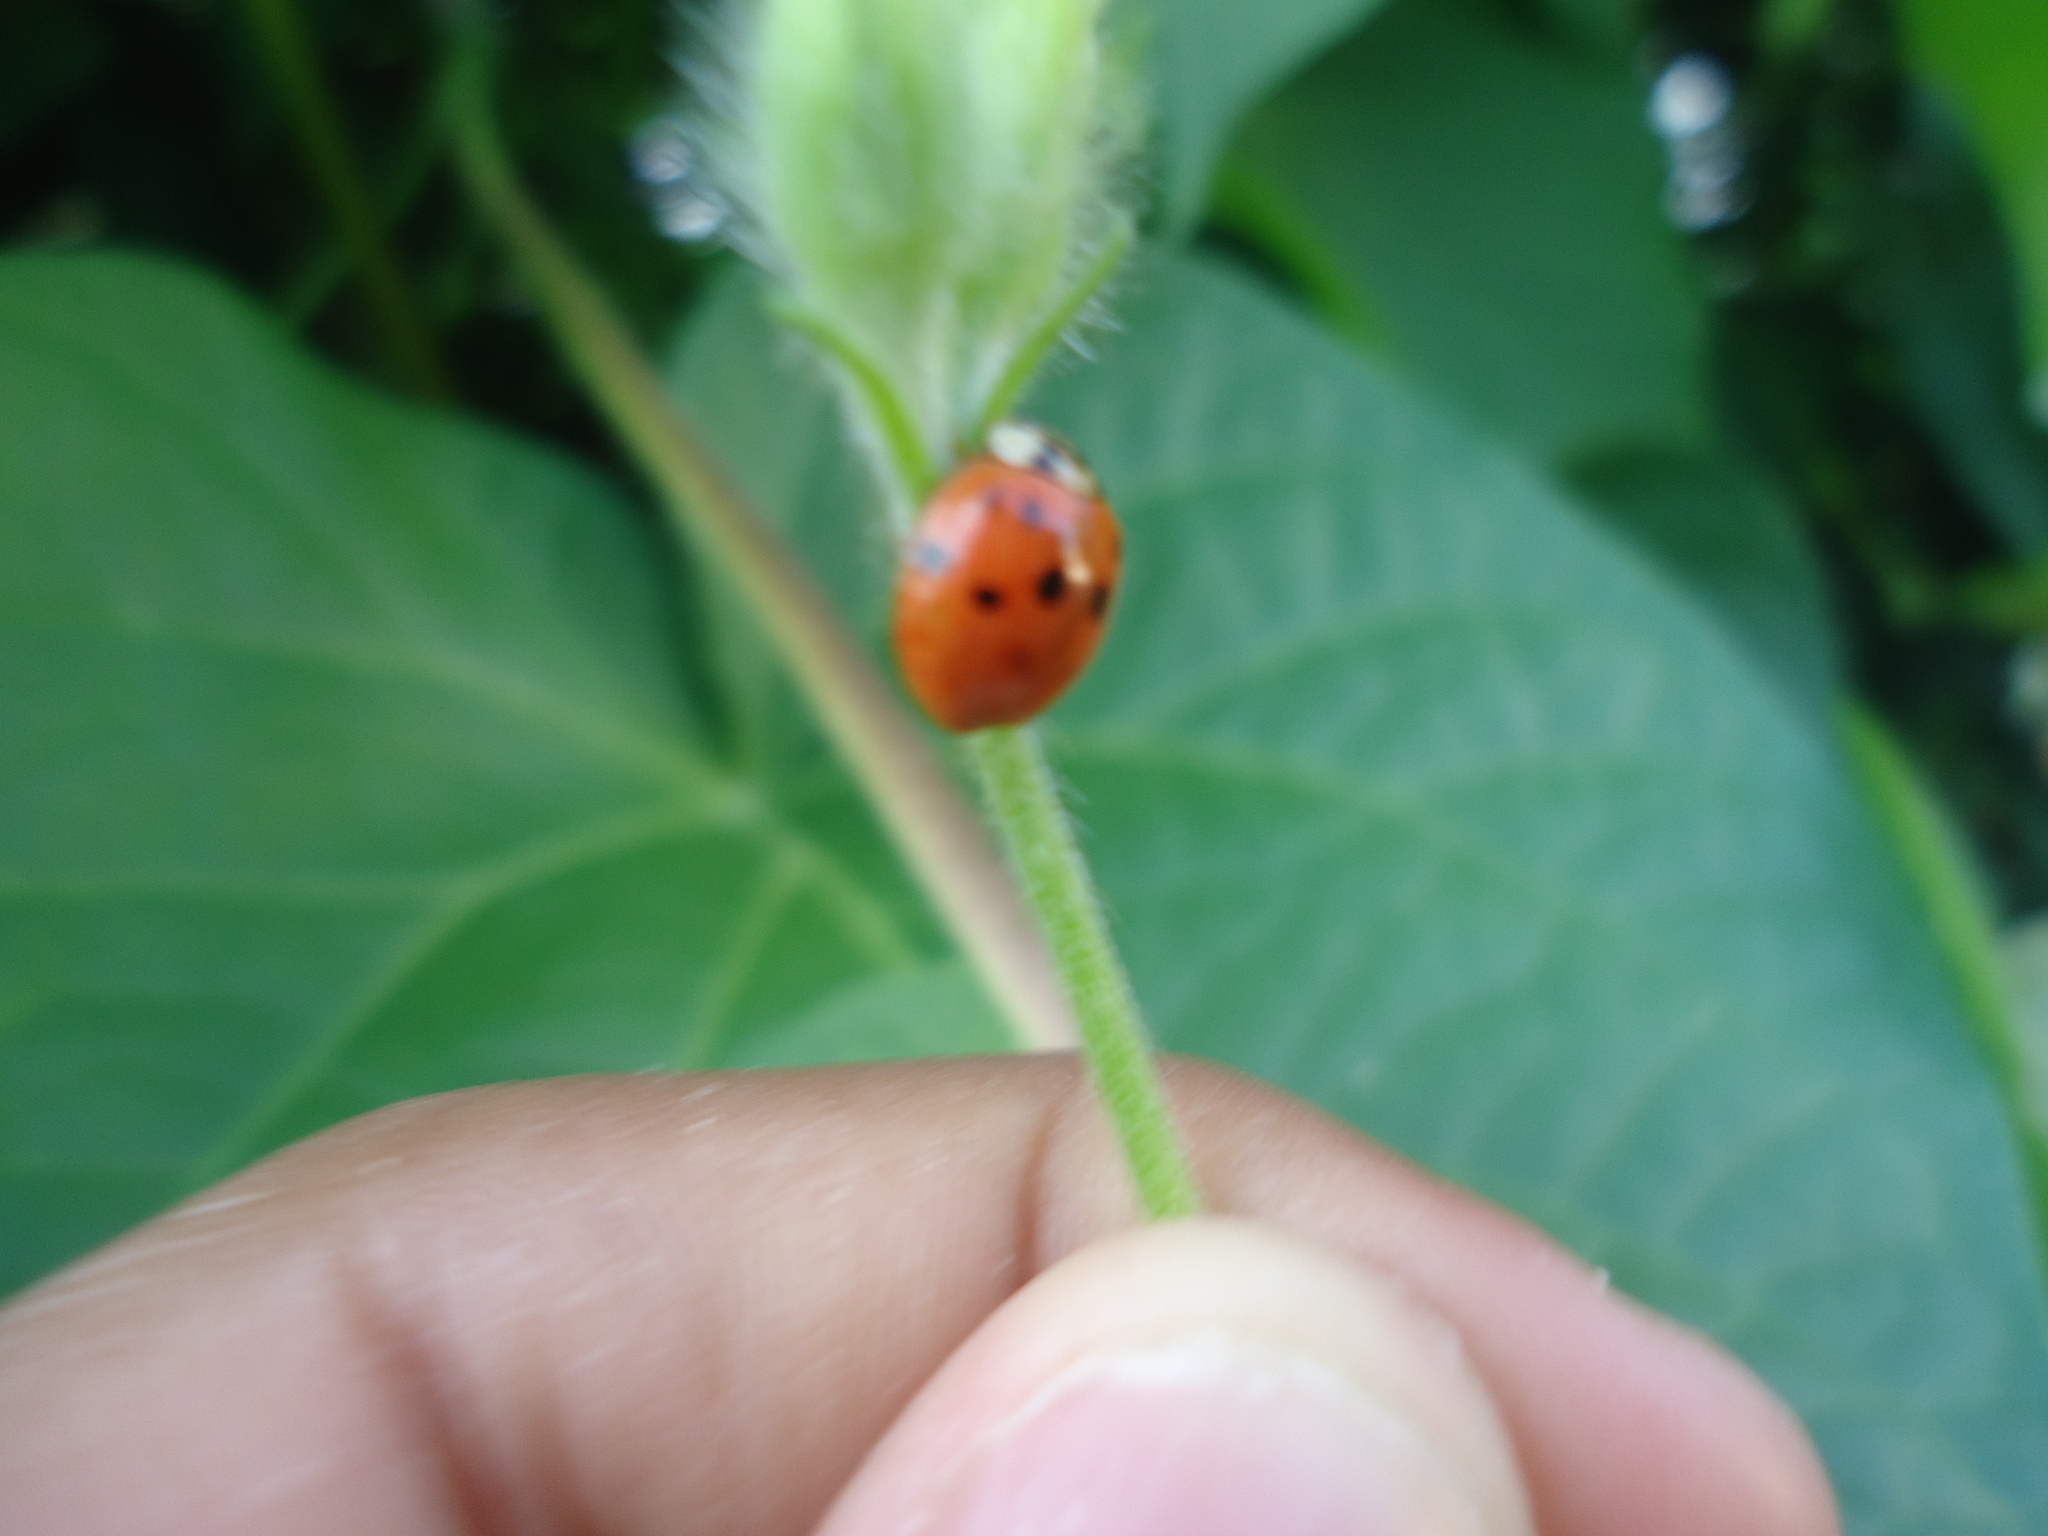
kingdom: Animalia
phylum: Arthropoda
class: Insecta
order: Coleoptera
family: Coccinellidae
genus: Harmonia
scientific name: Harmonia axyridis
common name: Harlequin ladybird
